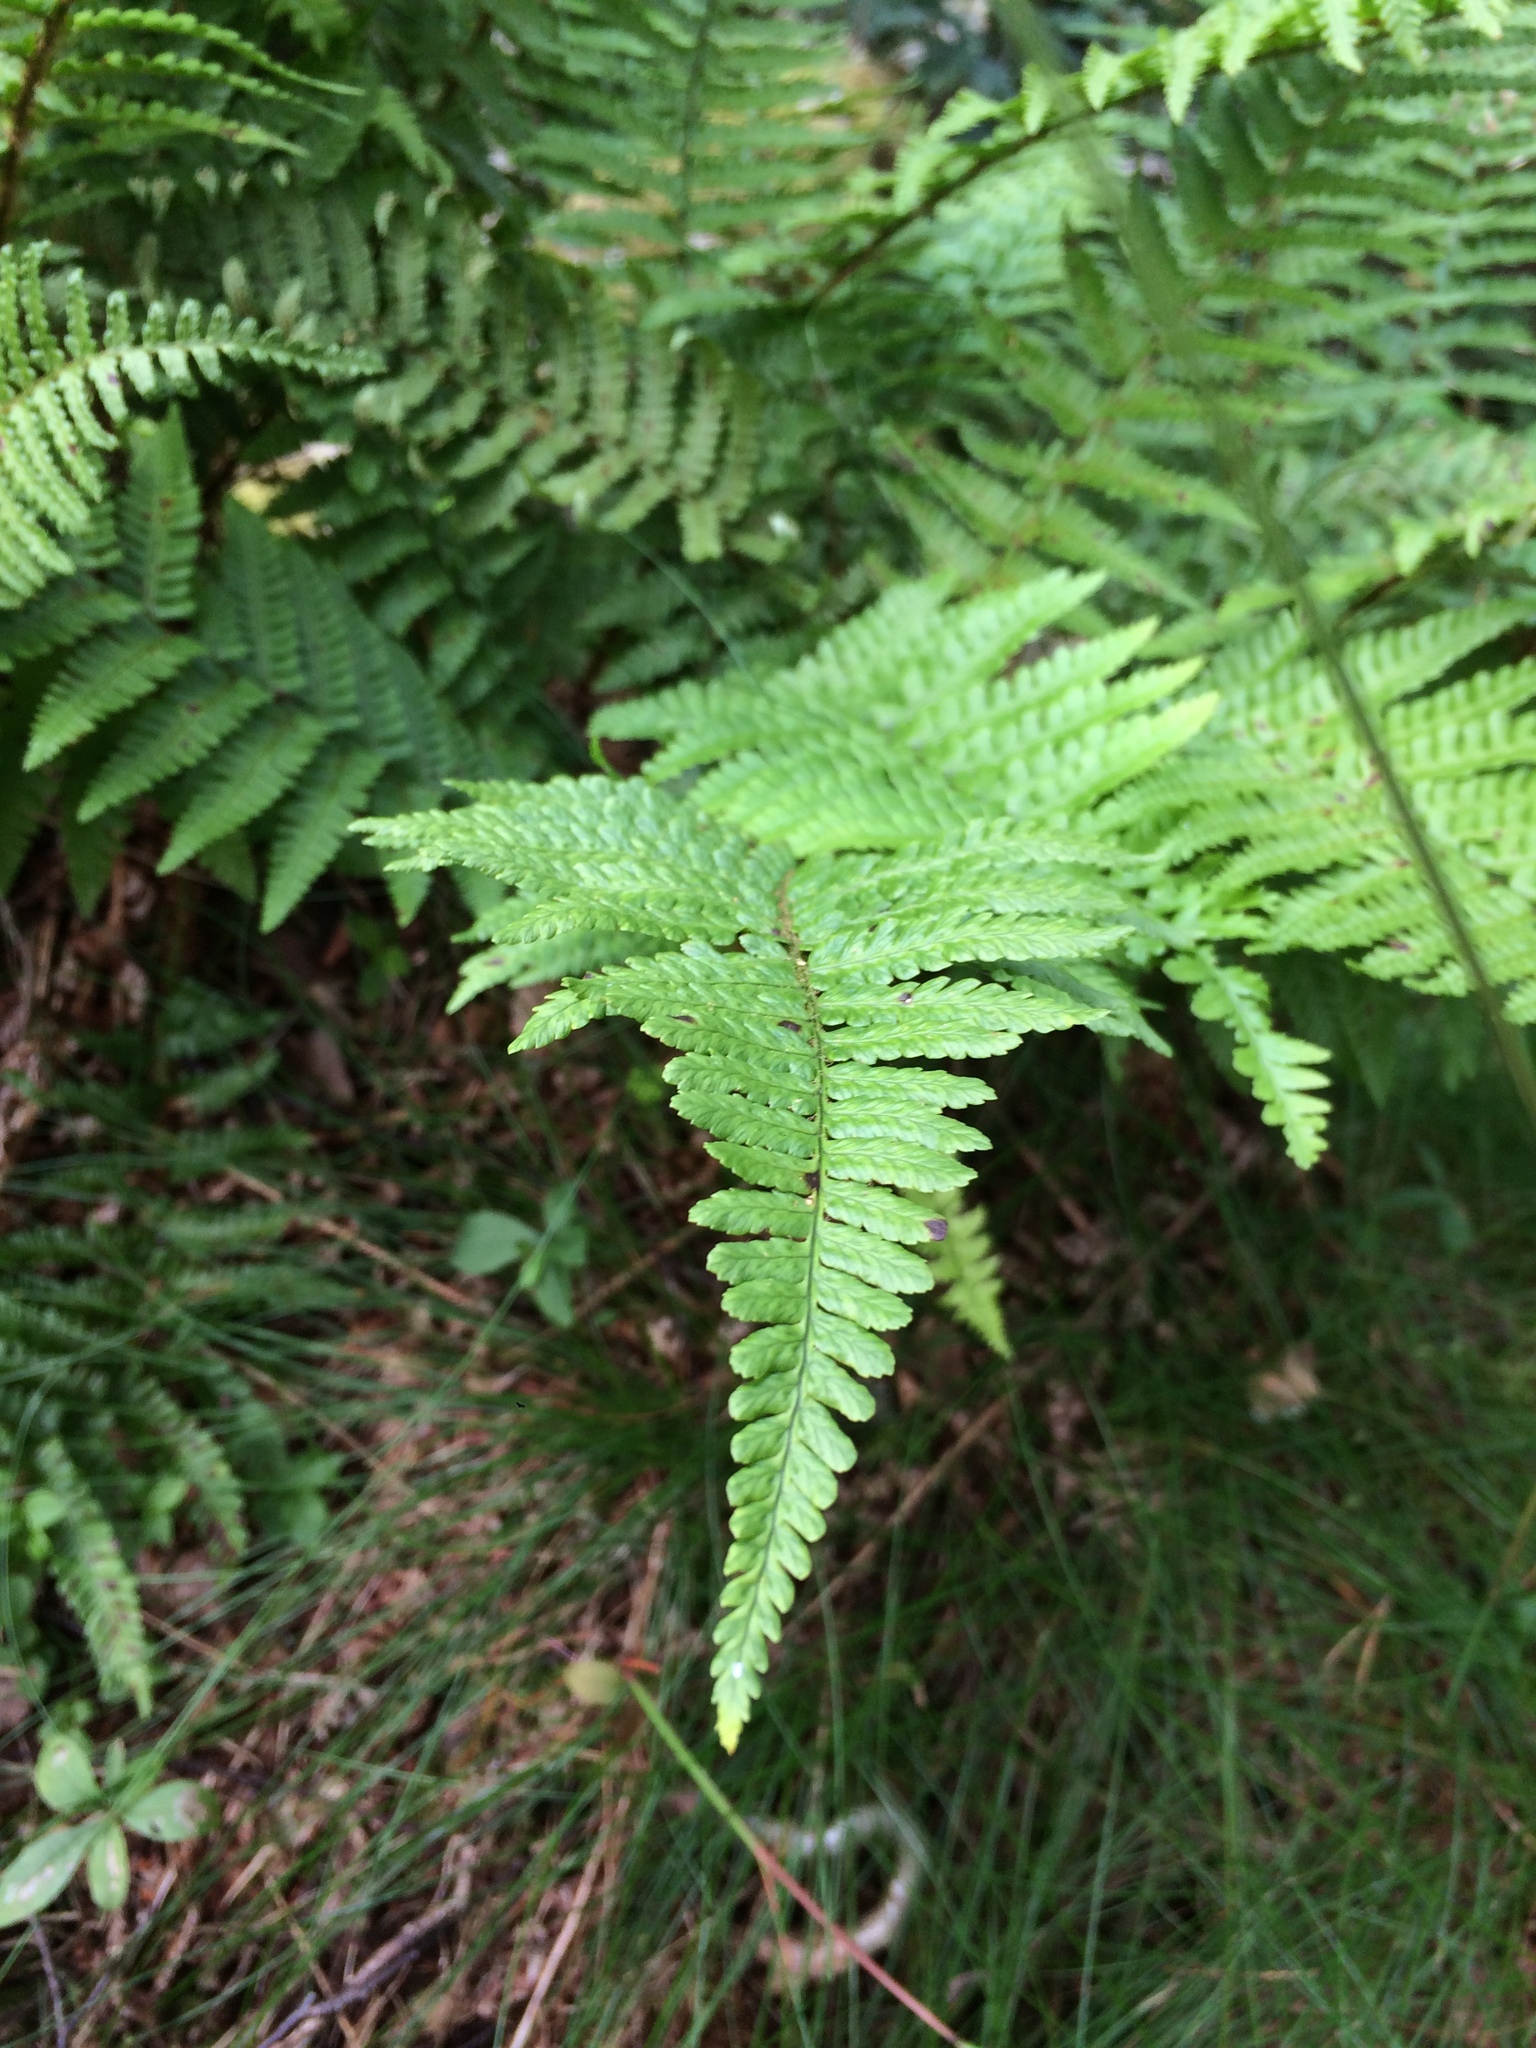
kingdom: Plantae
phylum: Tracheophyta
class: Polypodiopsida
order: Polypodiales
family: Dryopteridaceae
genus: Dryopteris
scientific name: Dryopteris filix-mas
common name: Male fern
